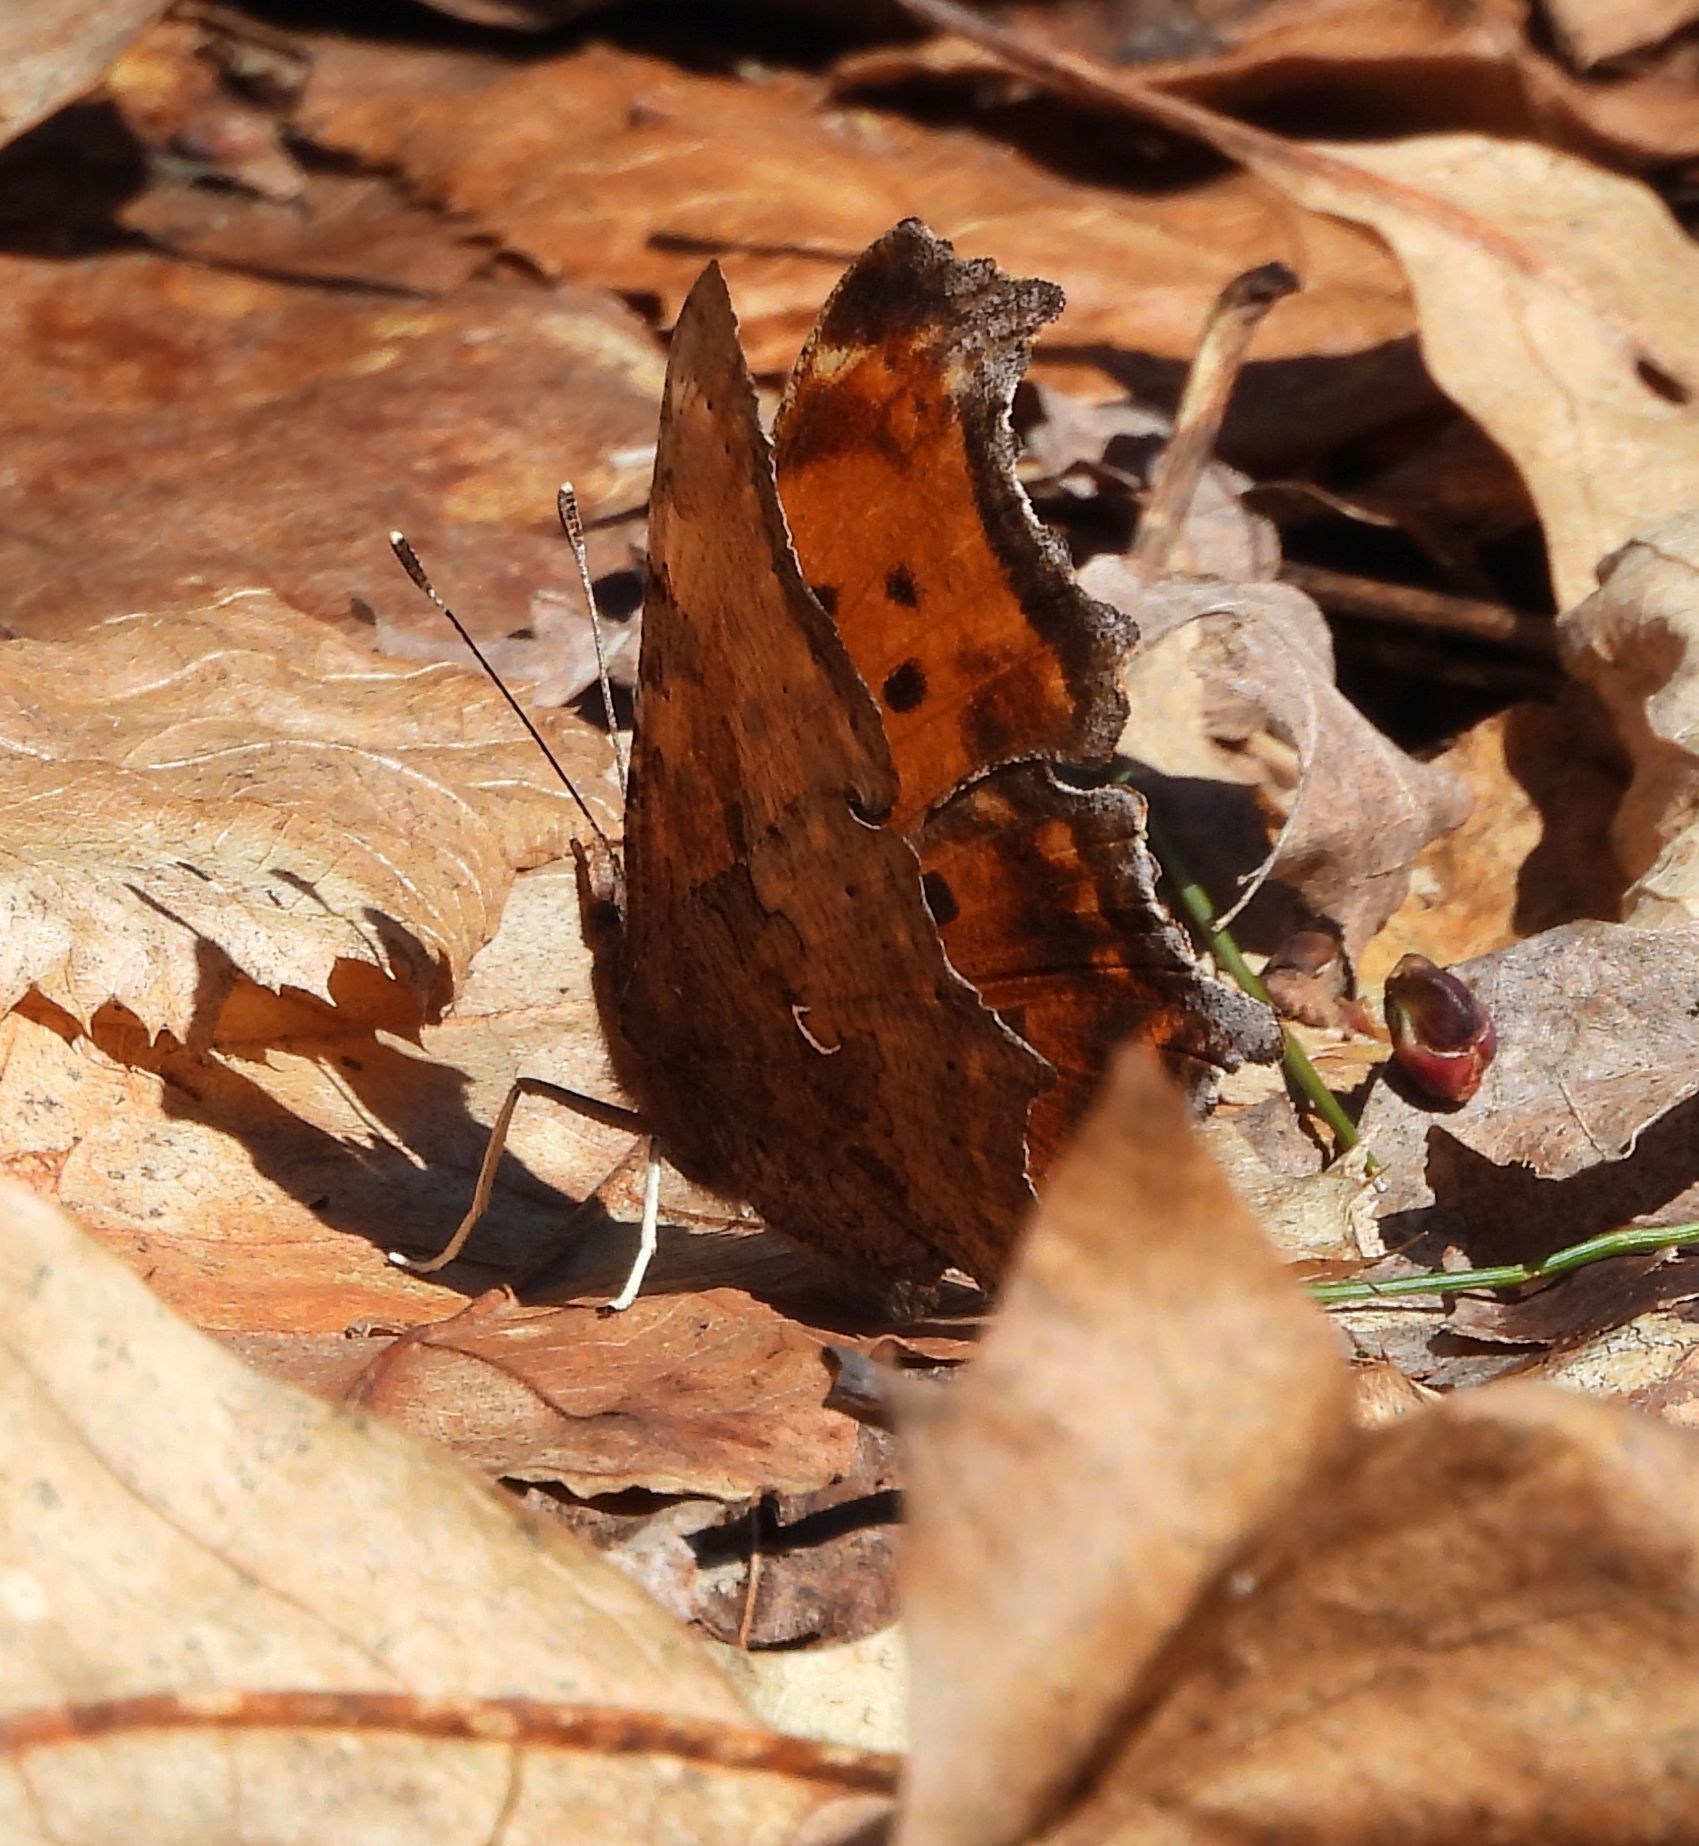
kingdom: Animalia
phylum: Arthropoda
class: Insecta
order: Lepidoptera
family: Nymphalidae
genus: Polygonia
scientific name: Polygonia comma
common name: Eastern comma
